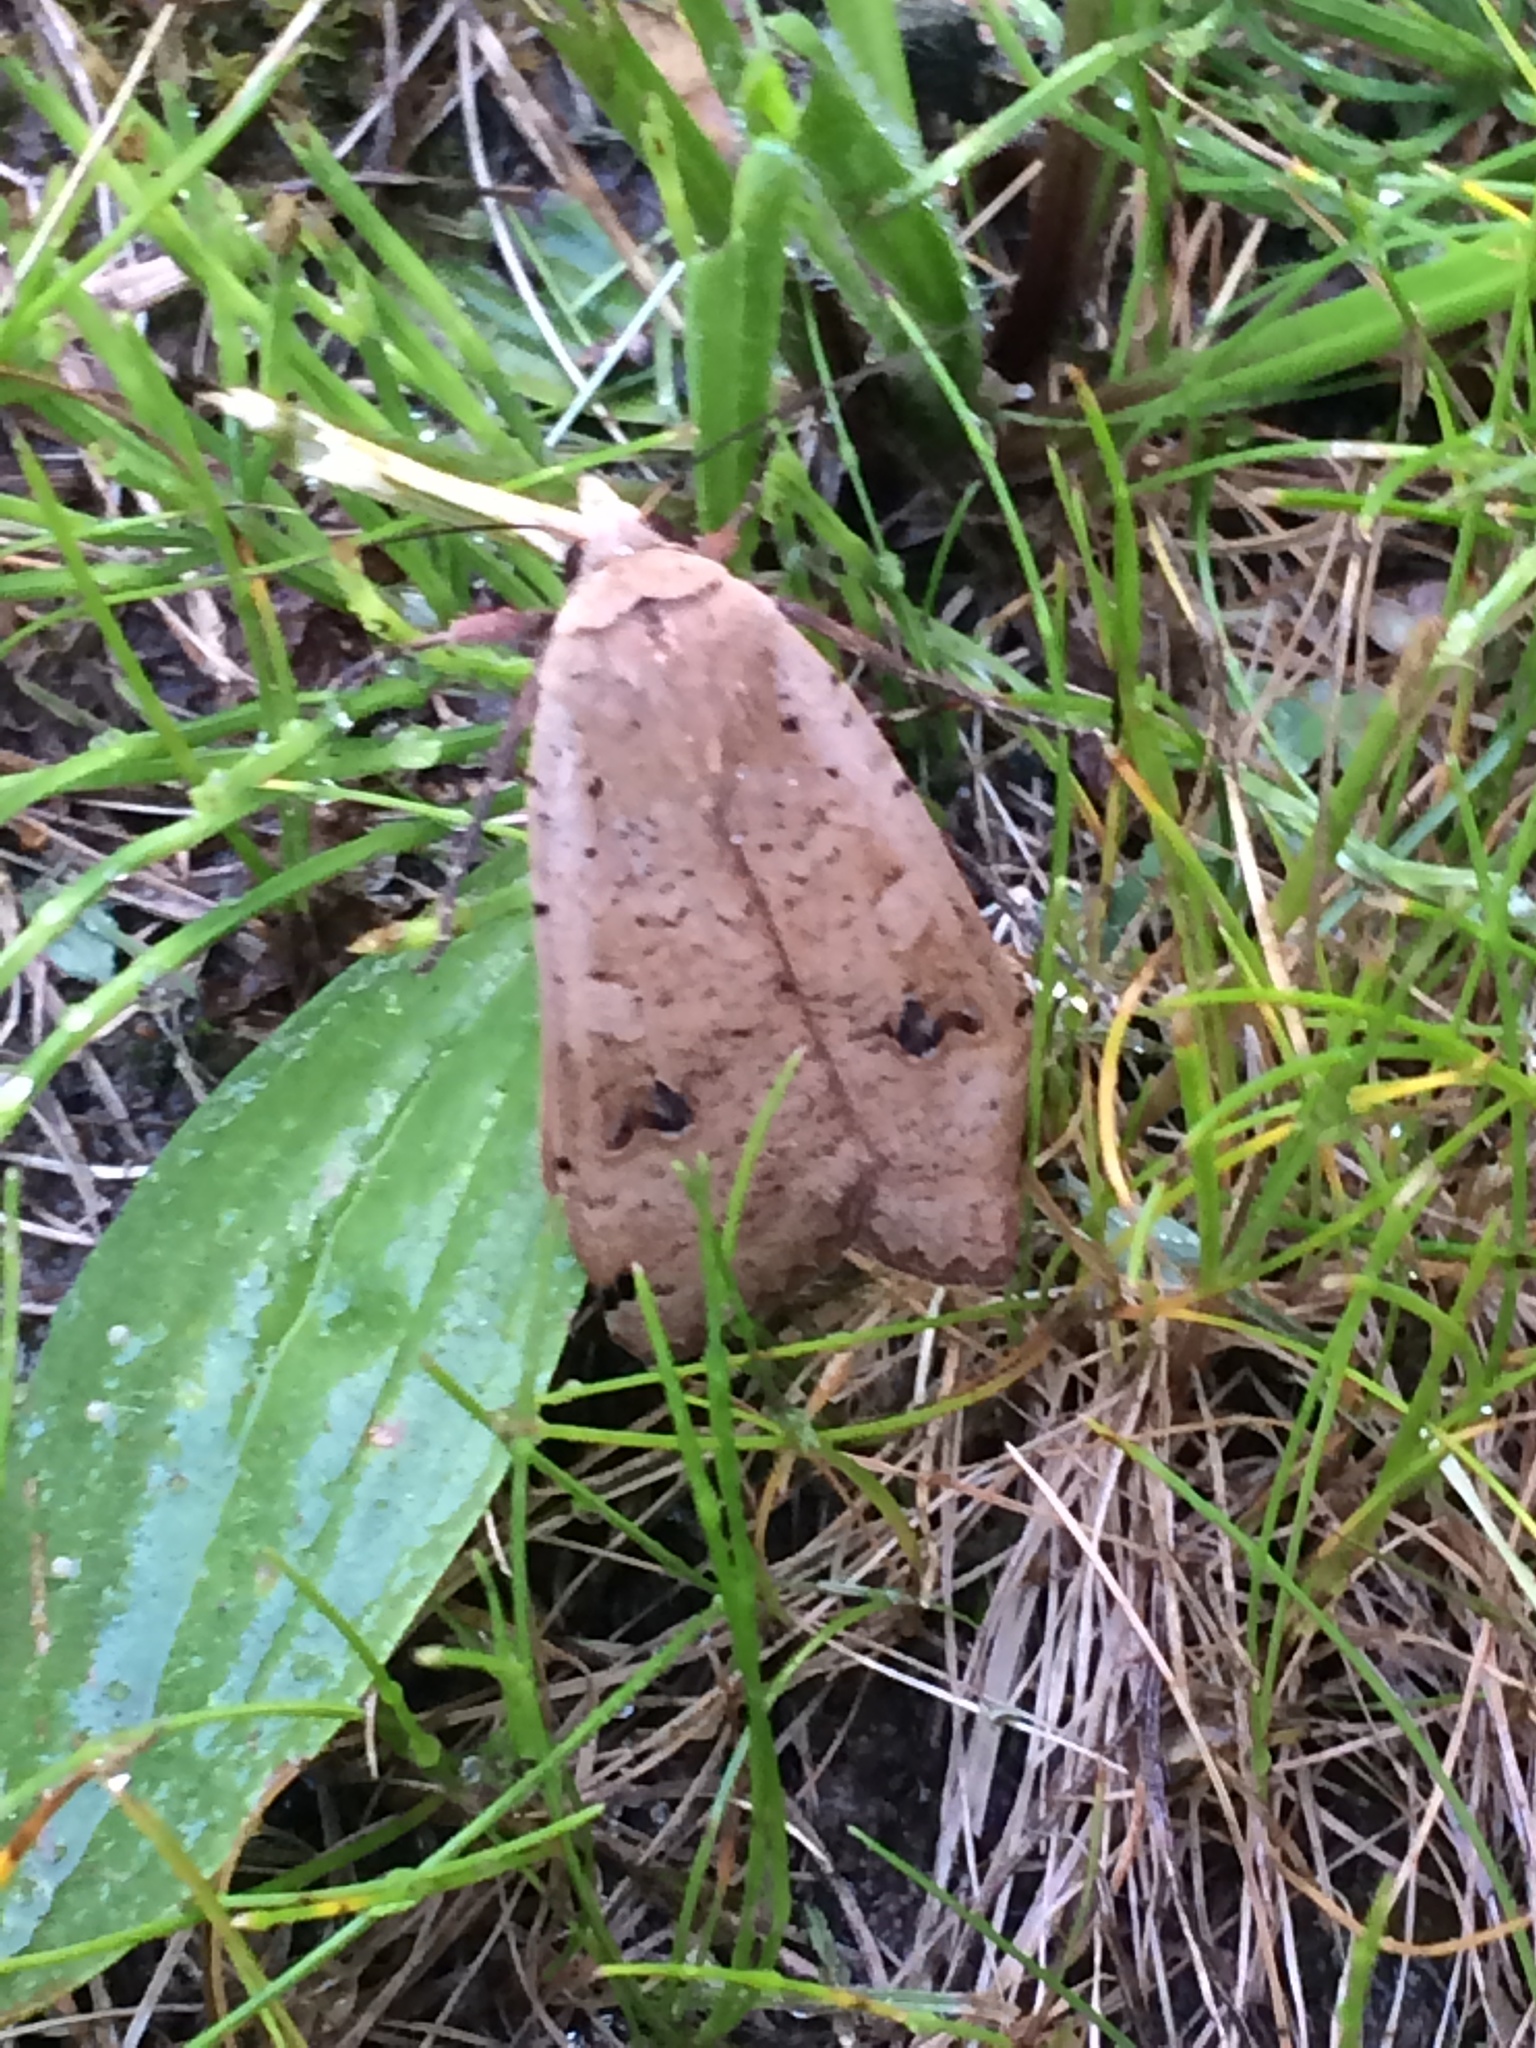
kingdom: Animalia
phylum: Arthropoda
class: Insecta
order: Lepidoptera
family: Noctuidae
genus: Noctua
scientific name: Noctua pronuba
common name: Large yellow underwing
